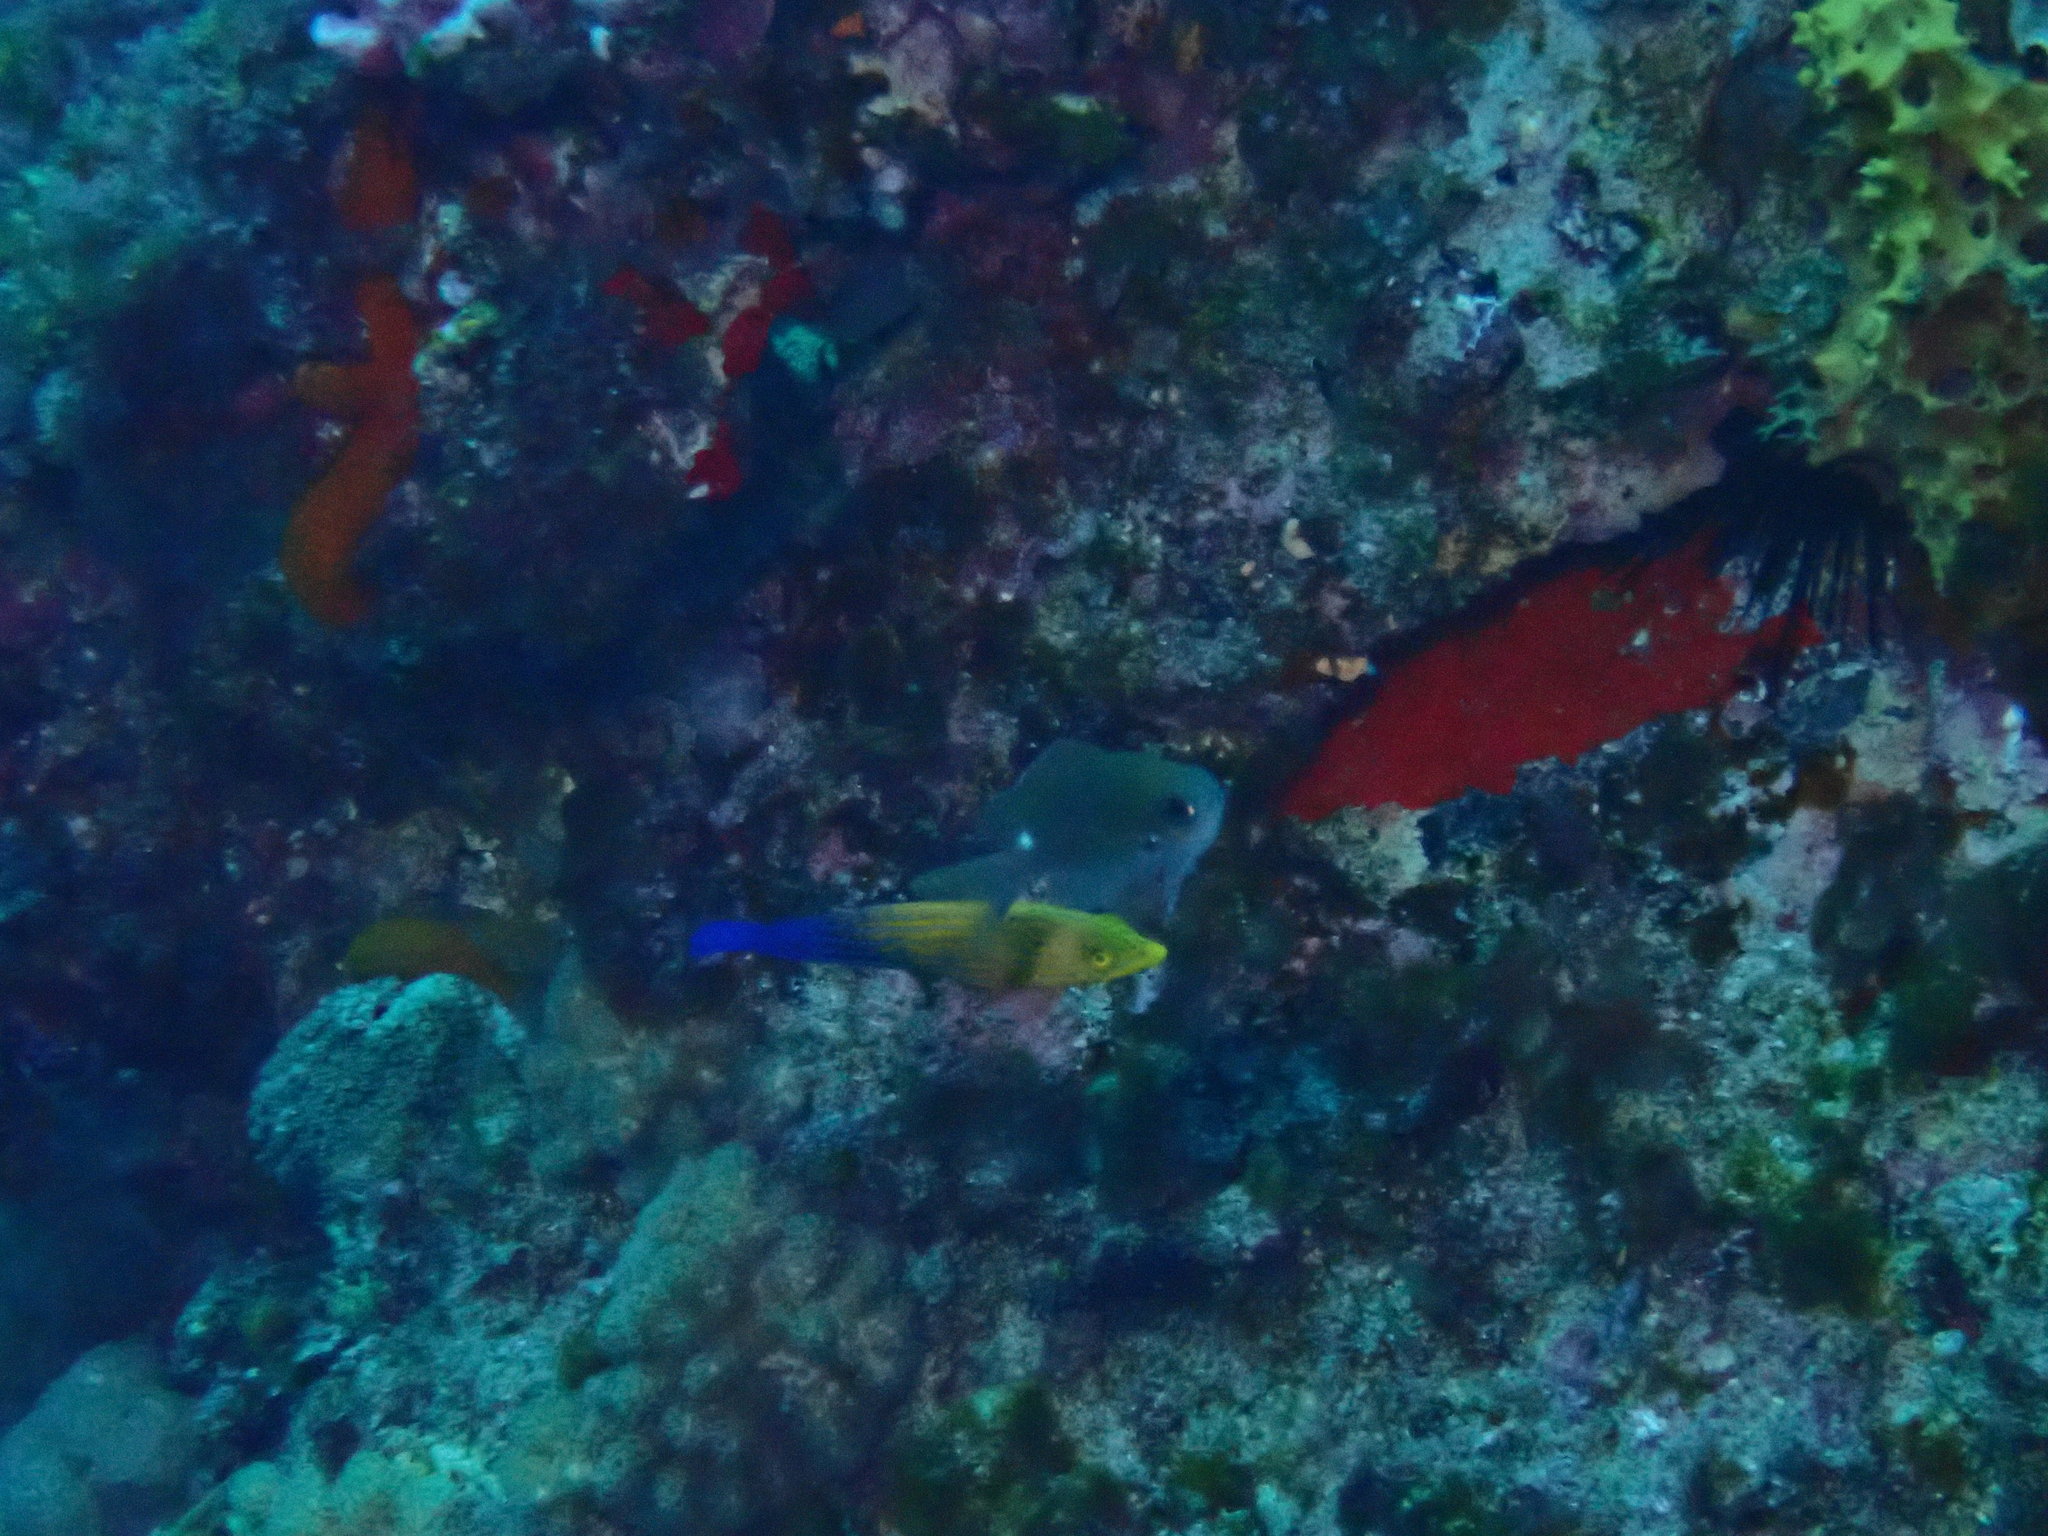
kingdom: Animalia
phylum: Chordata
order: Perciformes
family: Labridae
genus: Anampses
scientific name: Anampses femininus
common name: Feminine wrasse
